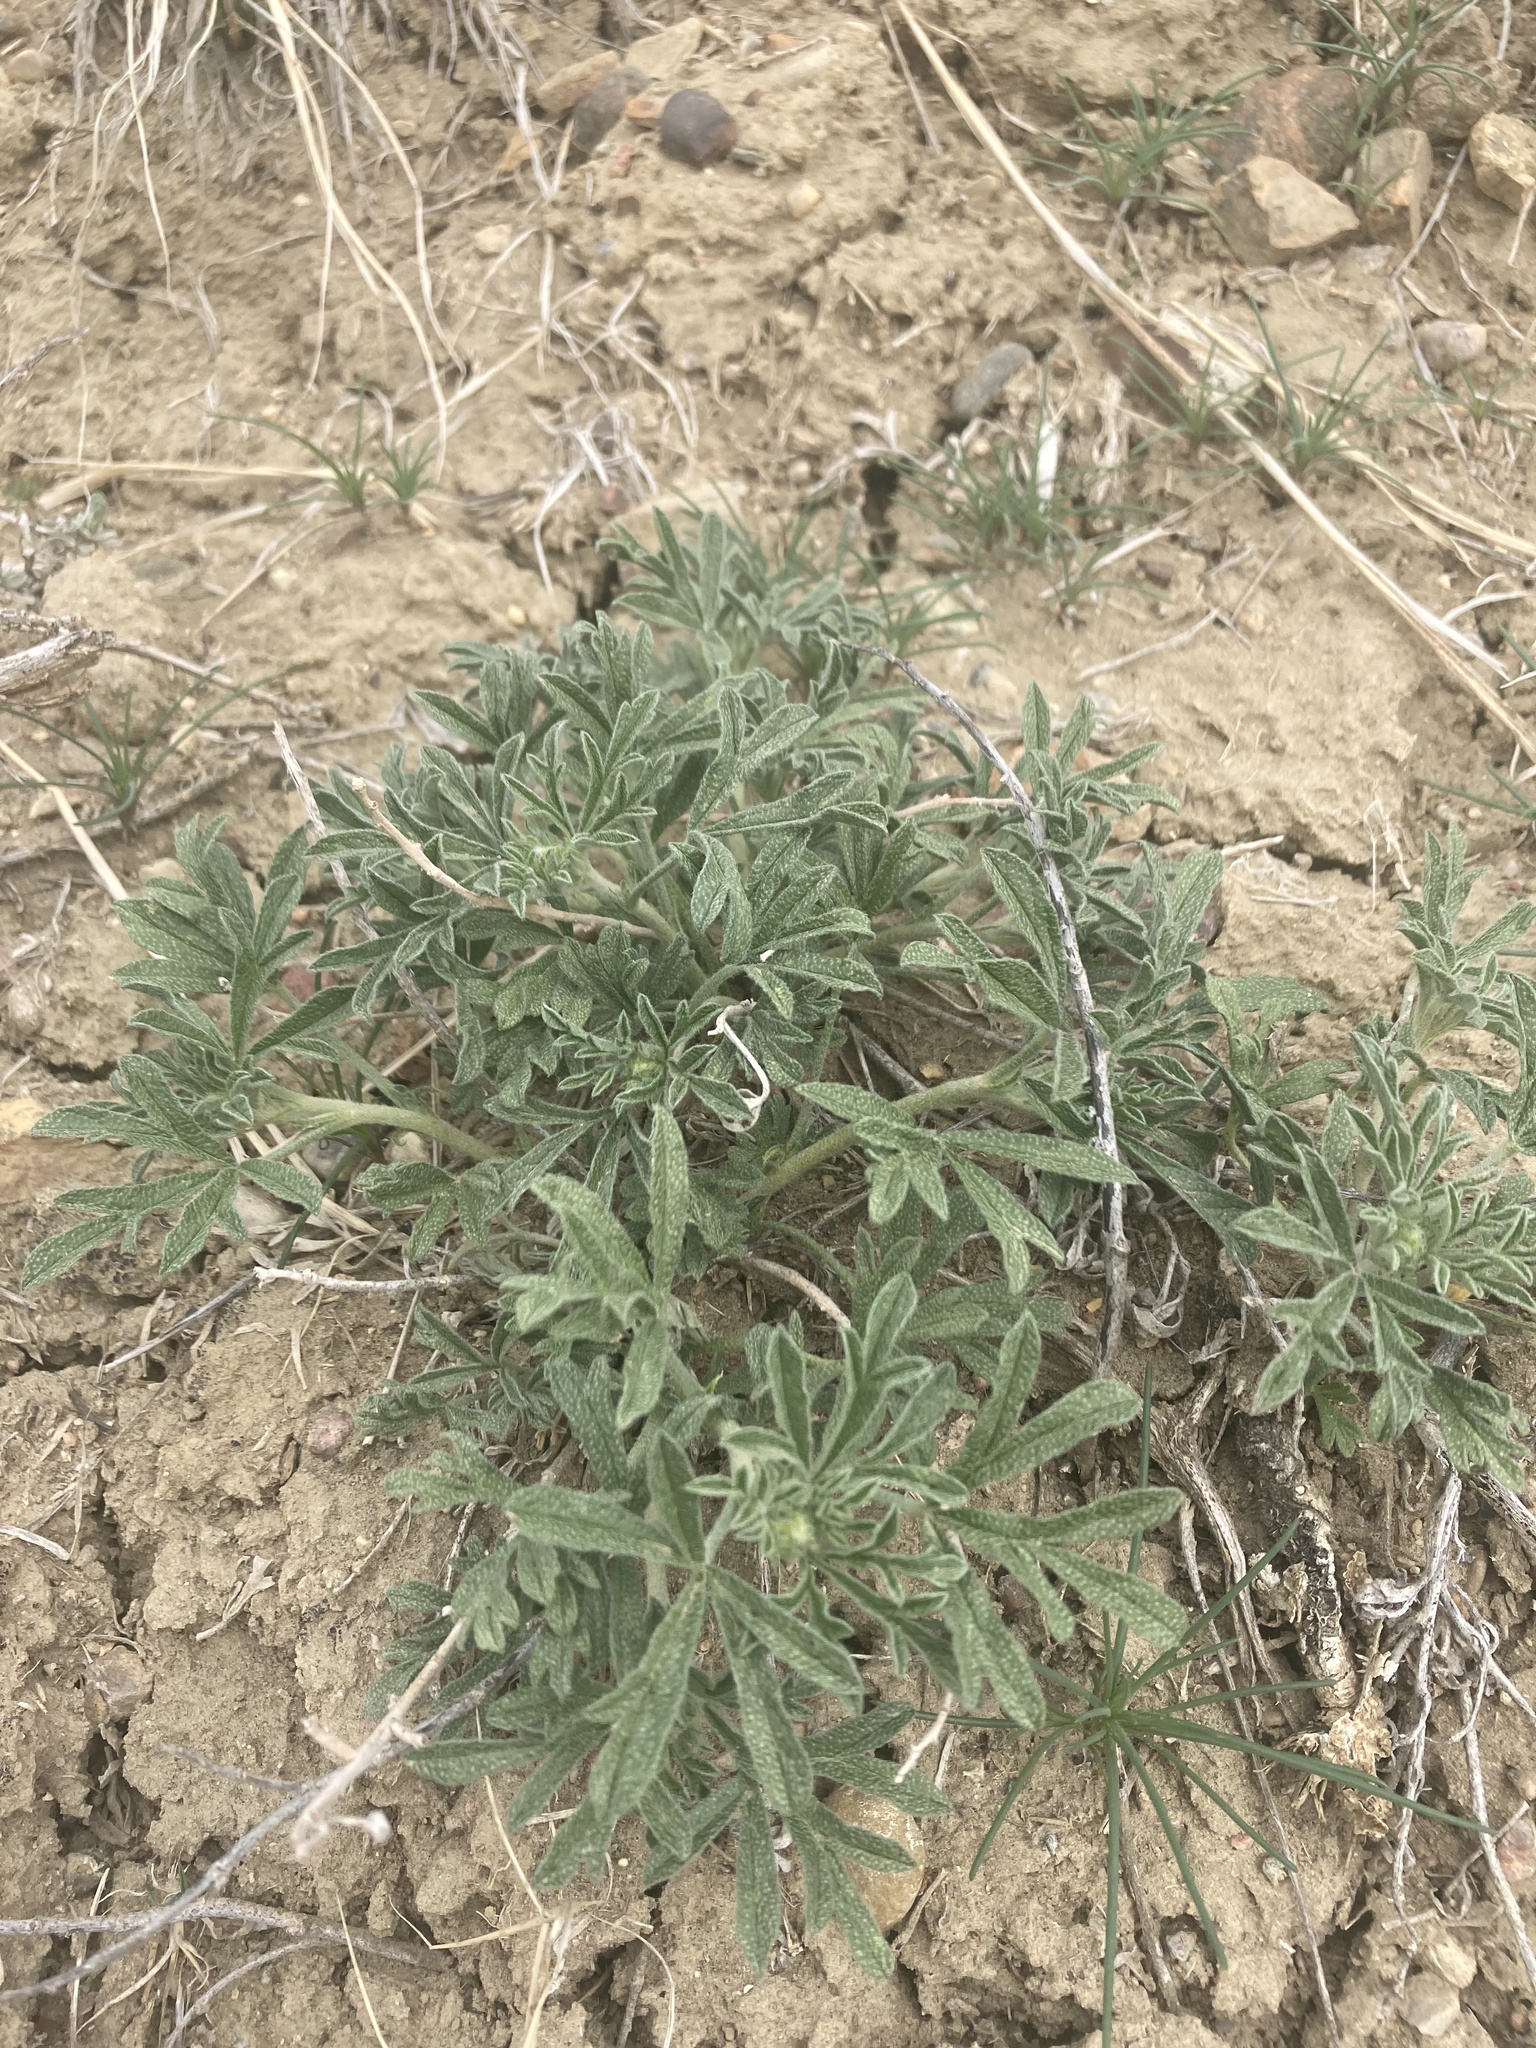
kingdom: Plantae
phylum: Tracheophyta
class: Magnoliopsida
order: Malvales
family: Malvaceae
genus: Sphaeralcea
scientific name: Sphaeralcea coccinea
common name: Moss-rose
